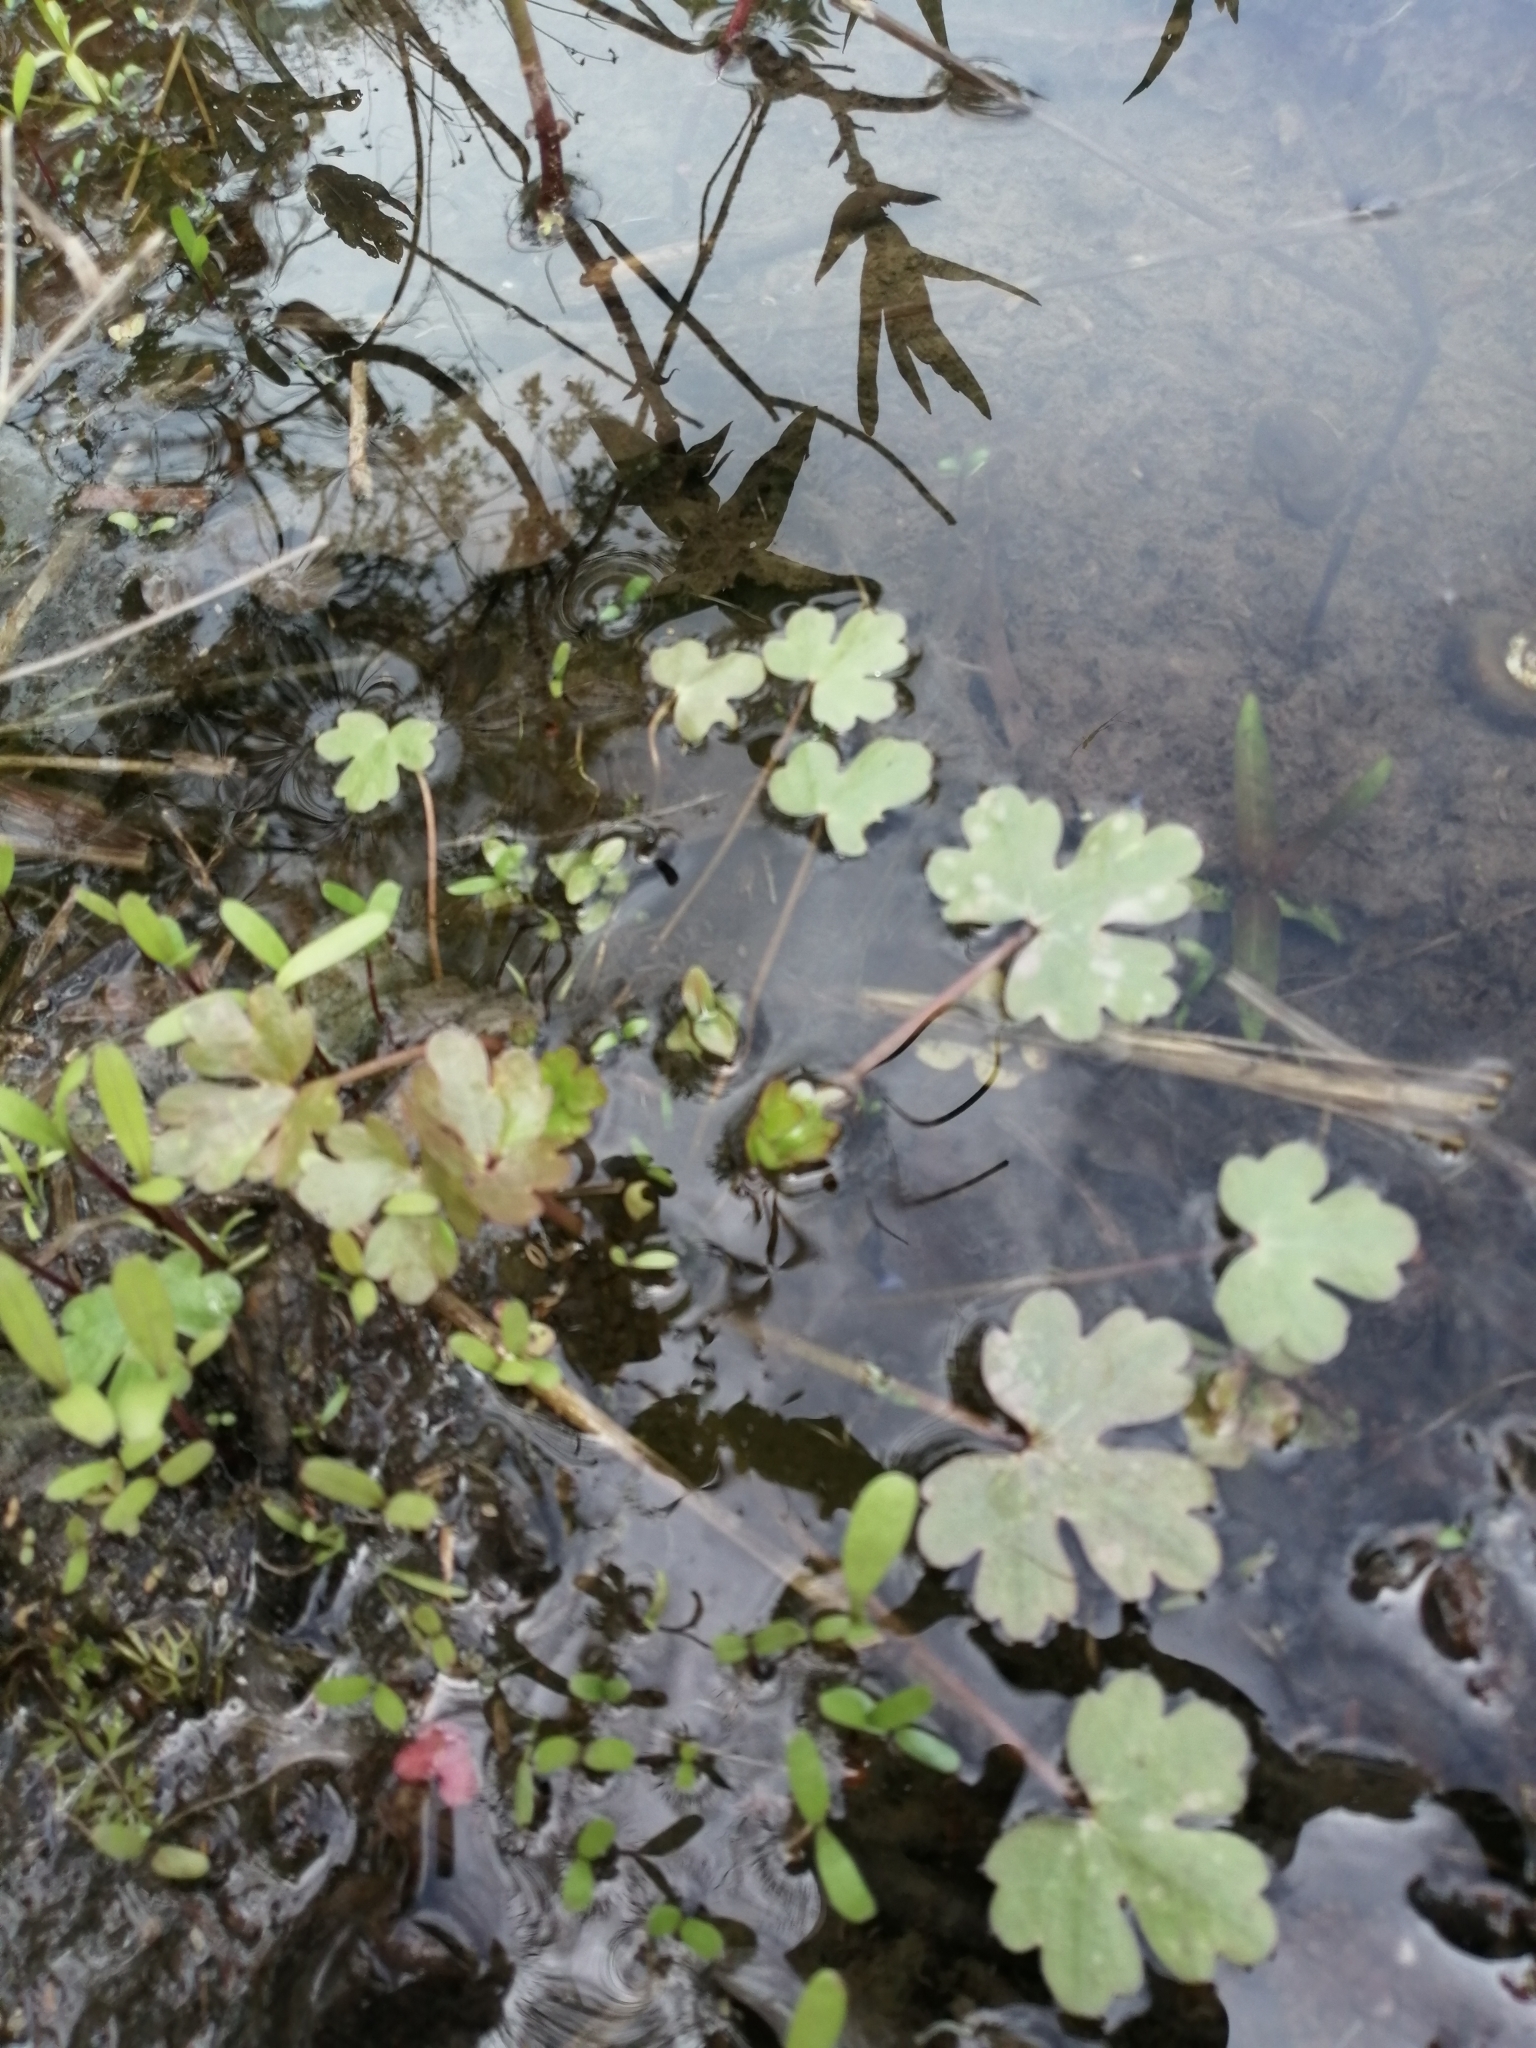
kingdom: Plantae
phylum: Tracheophyta
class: Magnoliopsida
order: Ranunculales
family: Ranunculaceae
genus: Ranunculus
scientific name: Ranunculus sceleratus
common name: Celery-leaved buttercup
